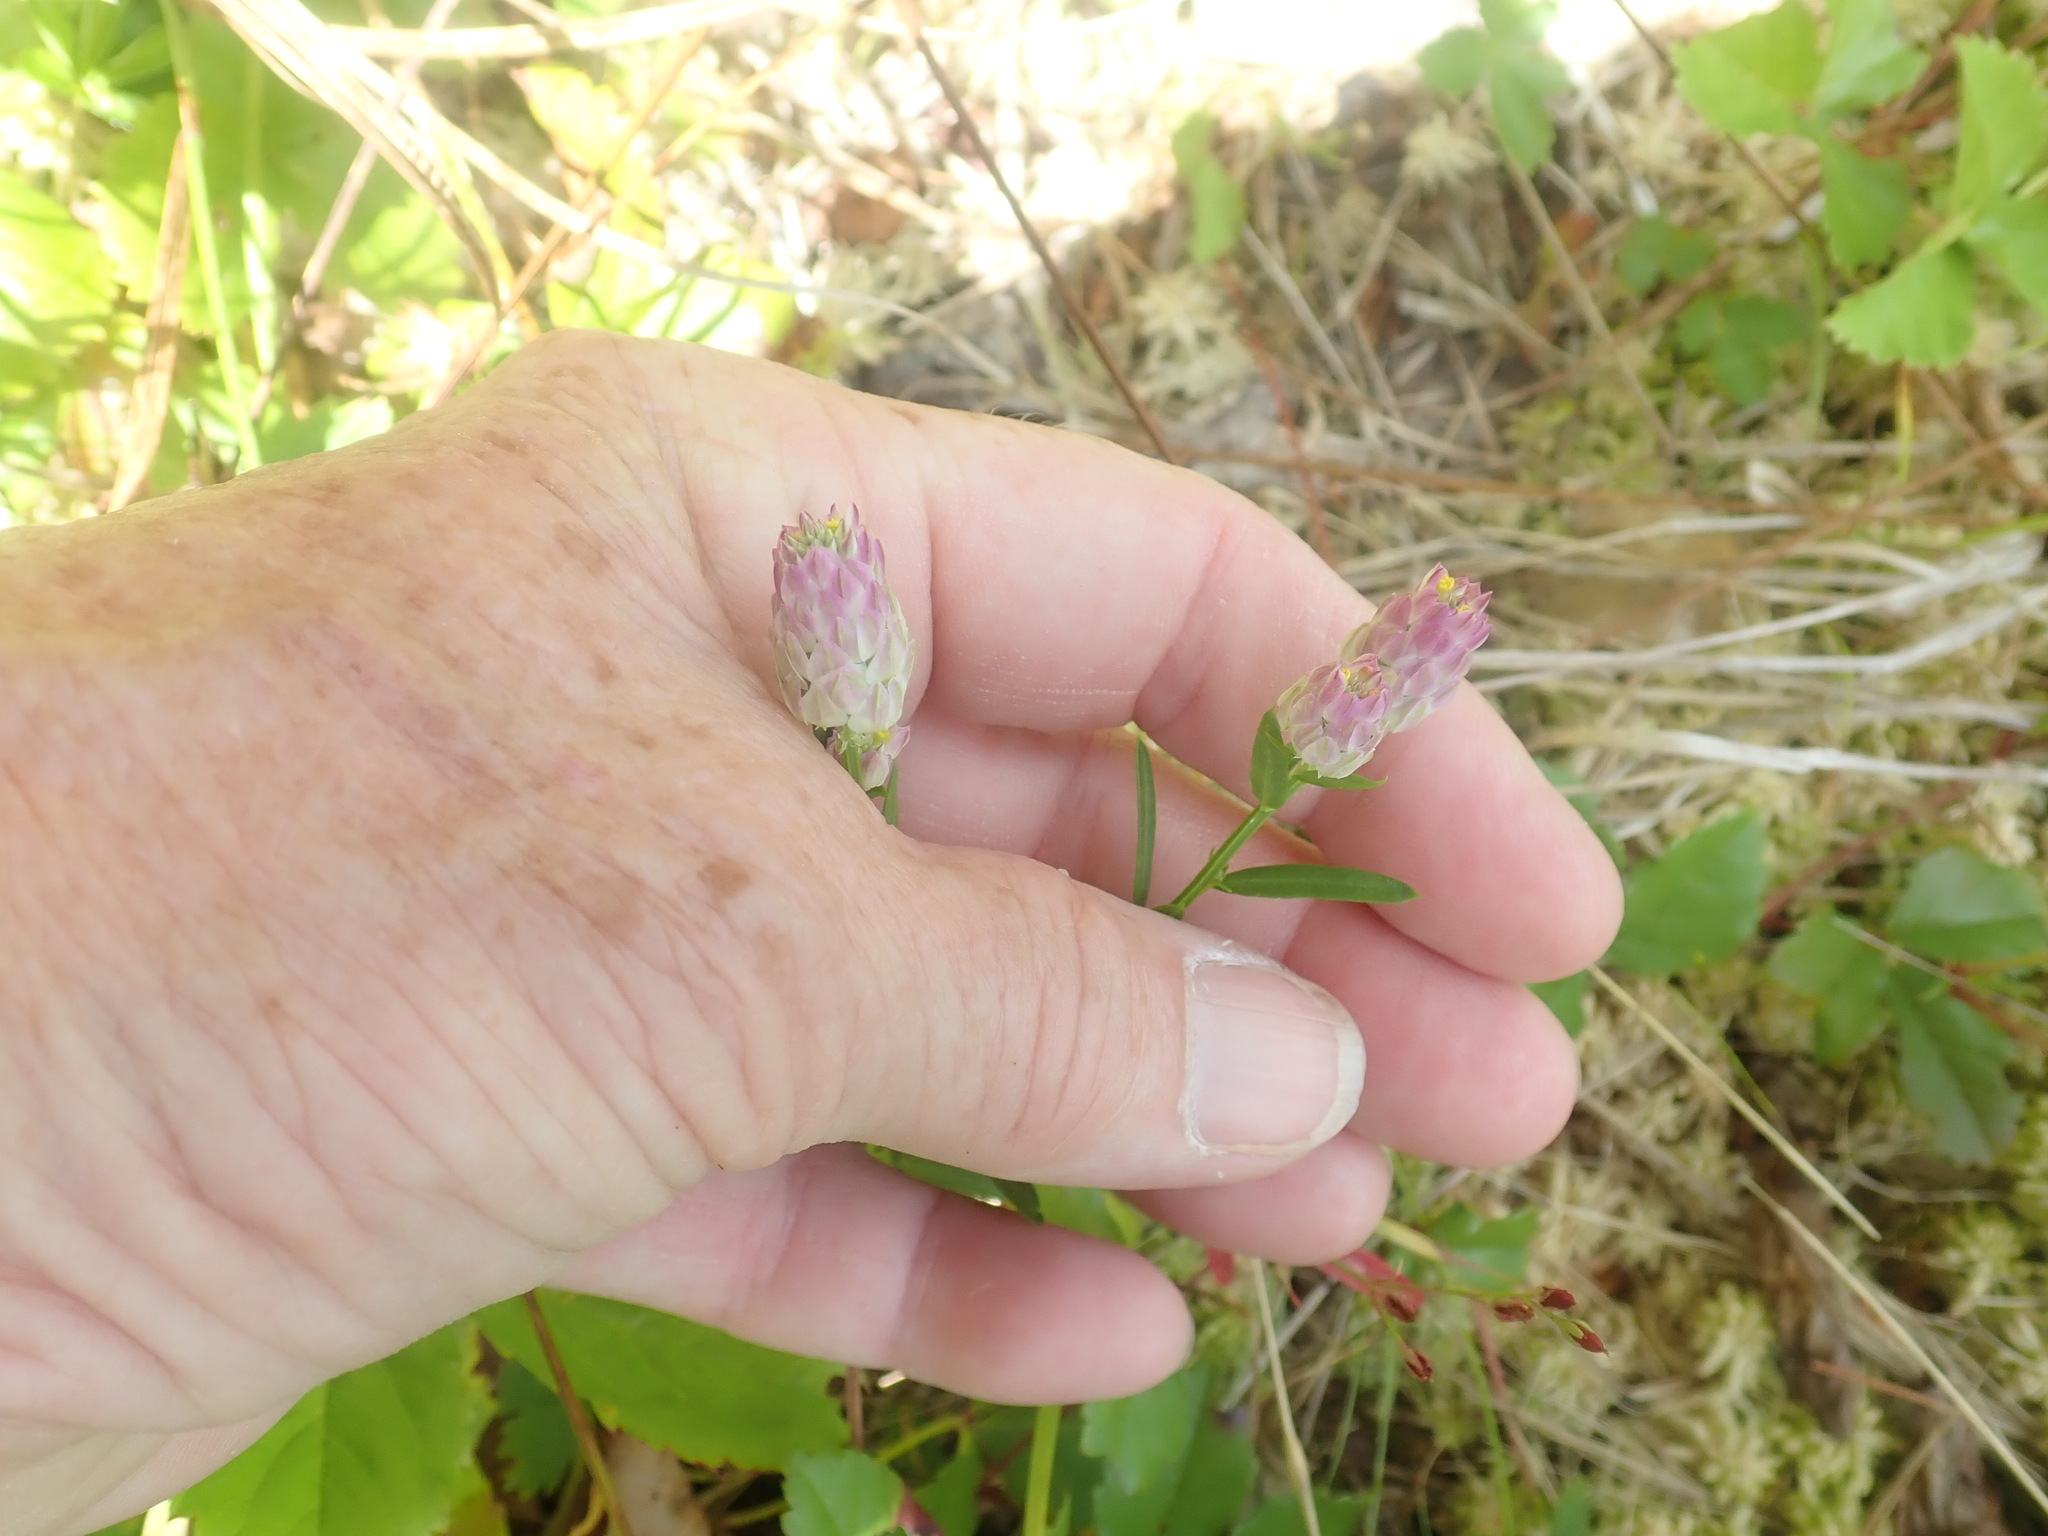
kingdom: Plantae
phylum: Tracheophyta
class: Magnoliopsida
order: Fabales
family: Polygalaceae
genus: Polygala
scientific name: Polygala sanguinea
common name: Blood milkwort
